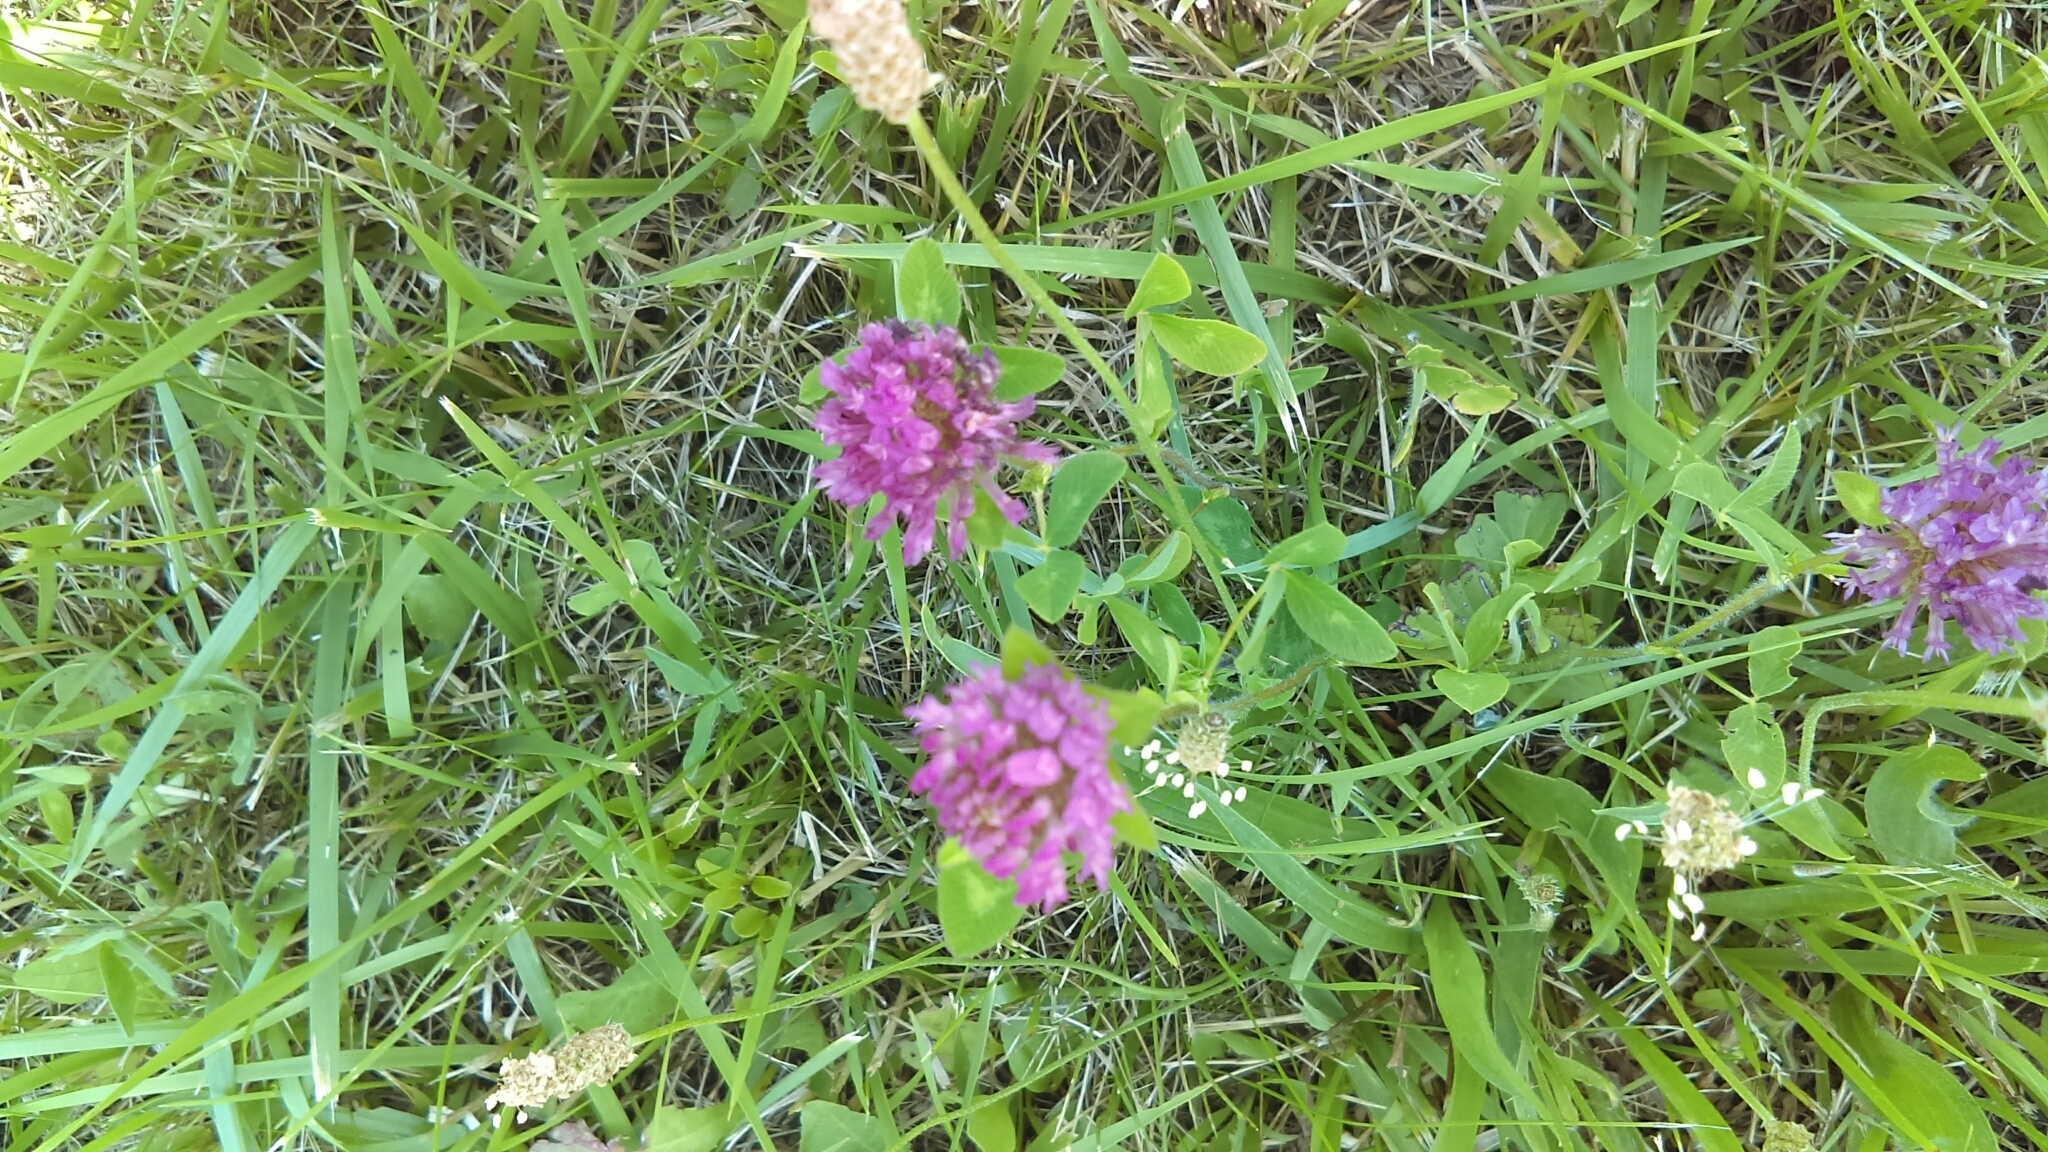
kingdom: Plantae
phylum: Tracheophyta
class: Magnoliopsida
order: Fabales
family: Fabaceae
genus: Trifolium
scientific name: Trifolium pratense
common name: Red clover
